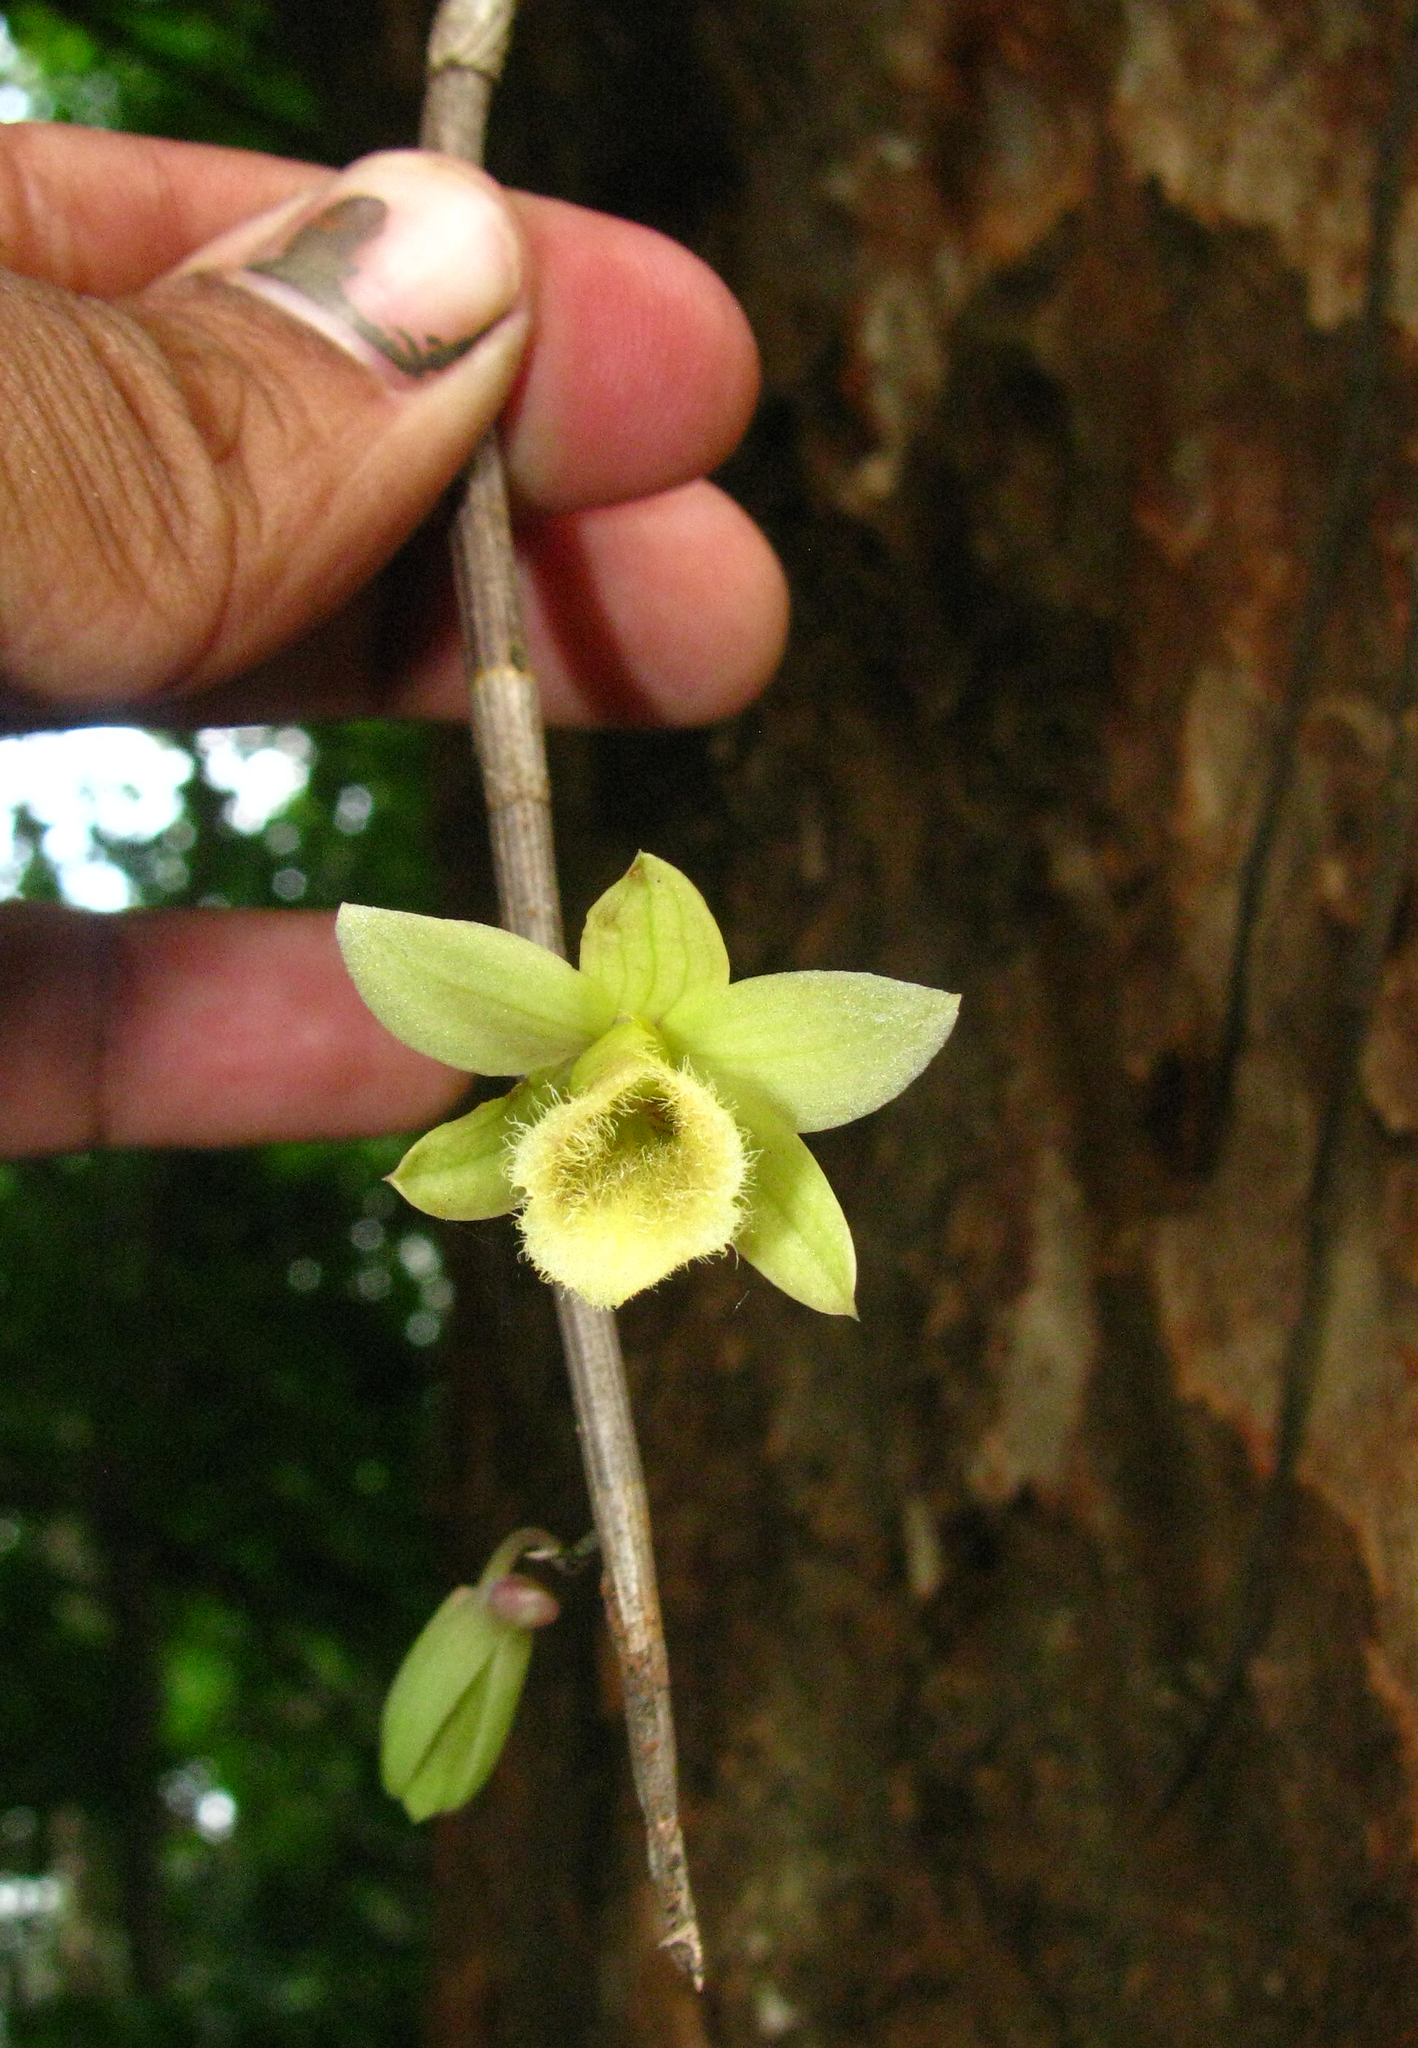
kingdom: Plantae
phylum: Tracheophyta
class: Liliopsida
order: Asparagales
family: Orchidaceae
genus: Dendrobium
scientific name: Dendrobium macrostachyum
